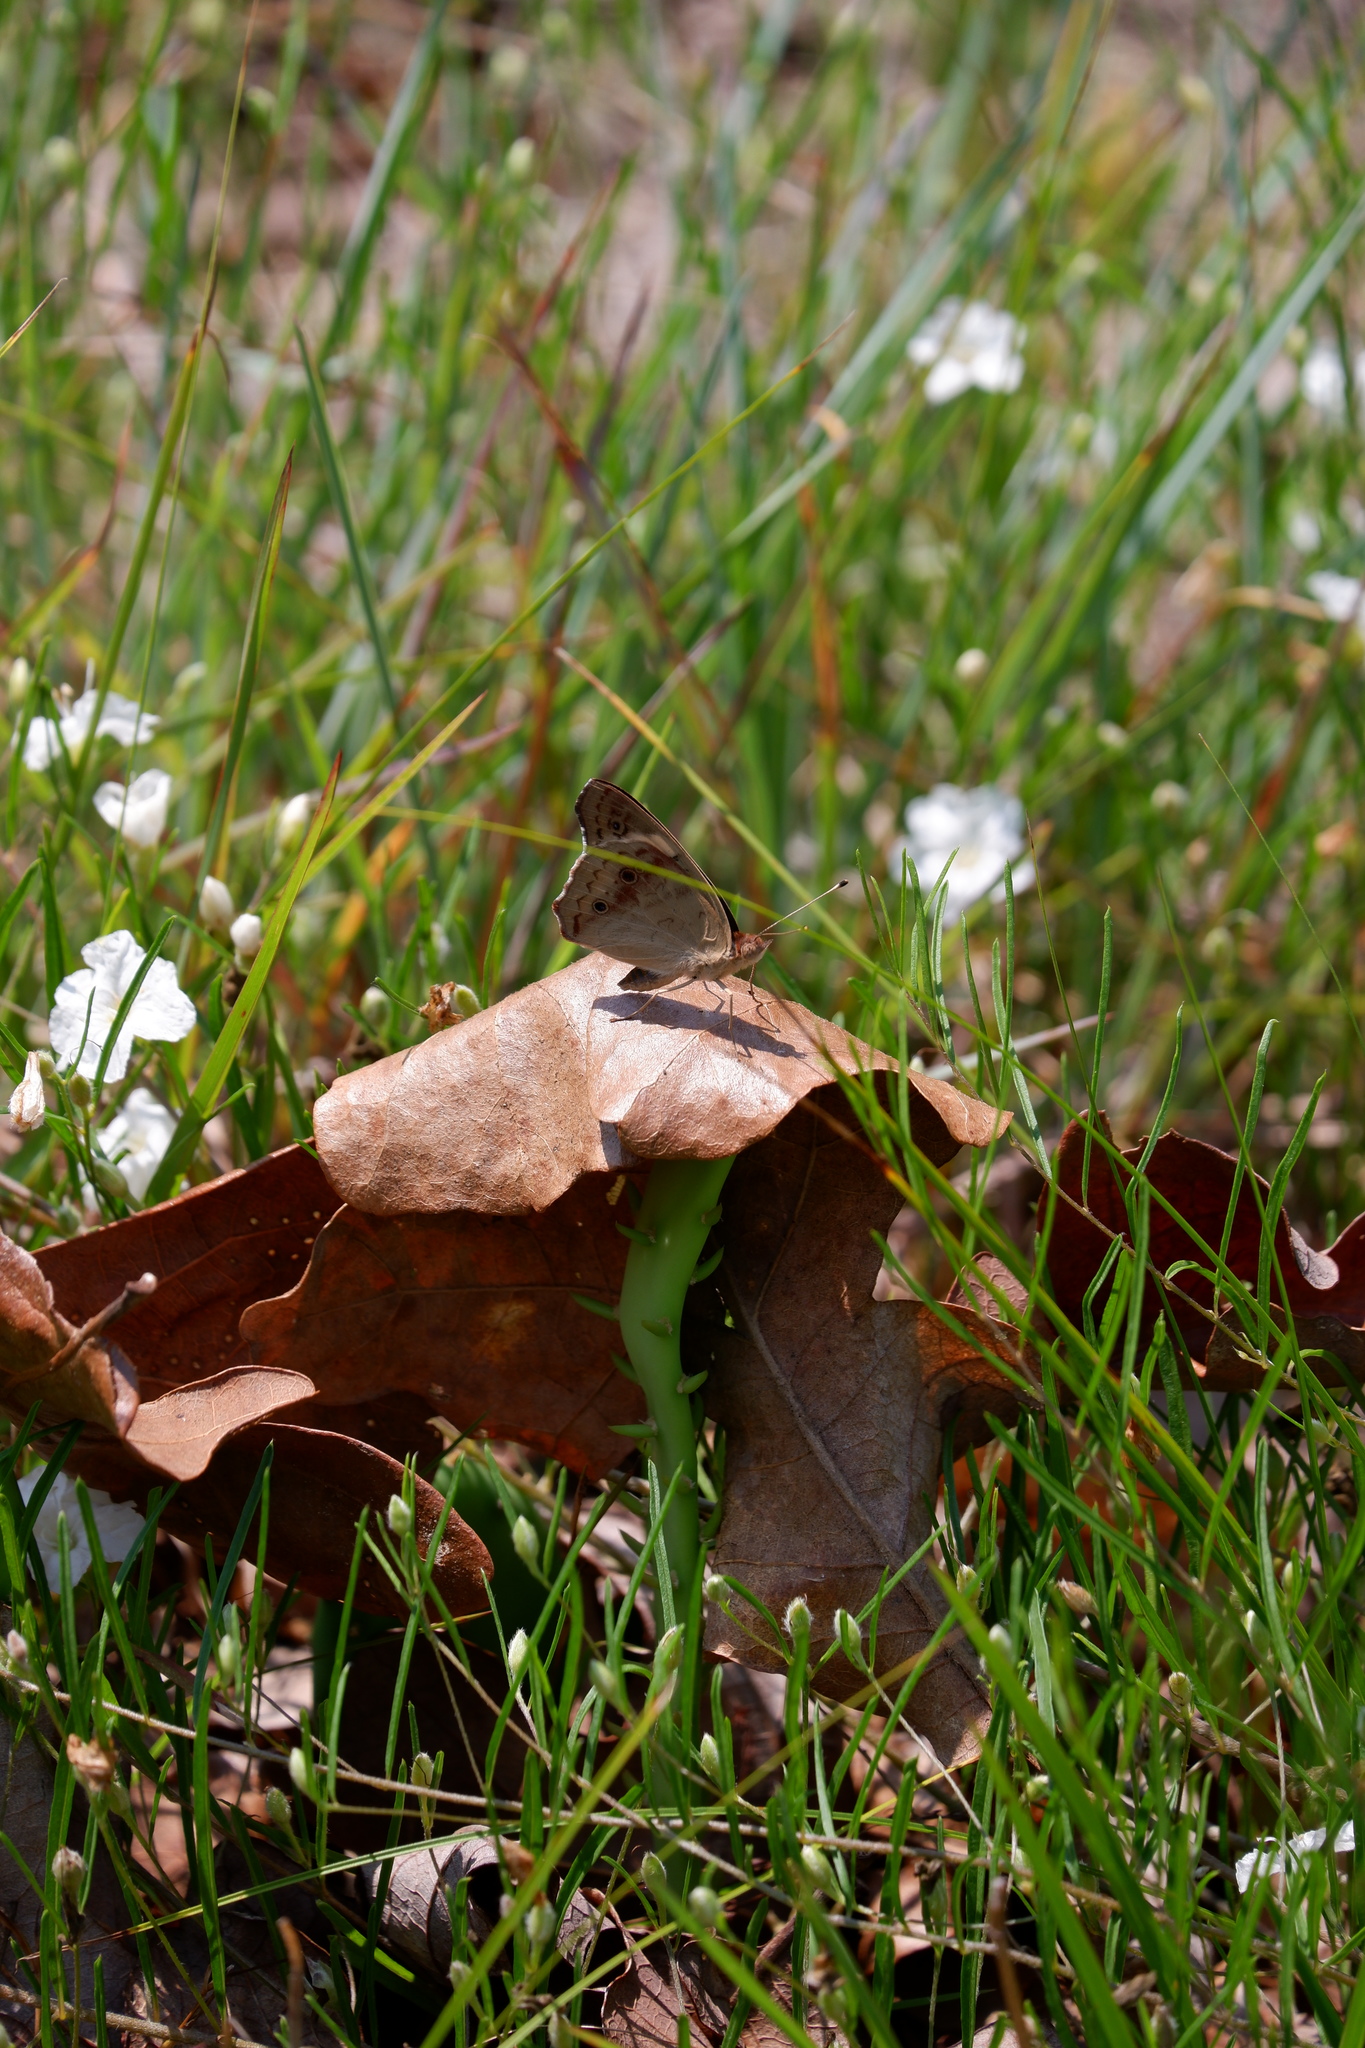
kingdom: Animalia
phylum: Arthropoda
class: Insecta
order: Lepidoptera
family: Nymphalidae
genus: Junonia
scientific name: Junonia coenia
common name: Common buckeye
